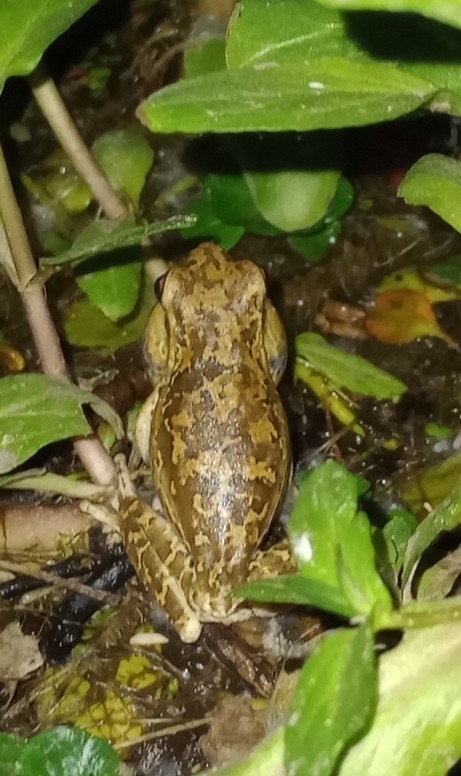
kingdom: Animalia
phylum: Chordata
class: Amphibia
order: Anura
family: Hylidae
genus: Boana
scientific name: Boana pulchella
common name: Montevideo treefrog
